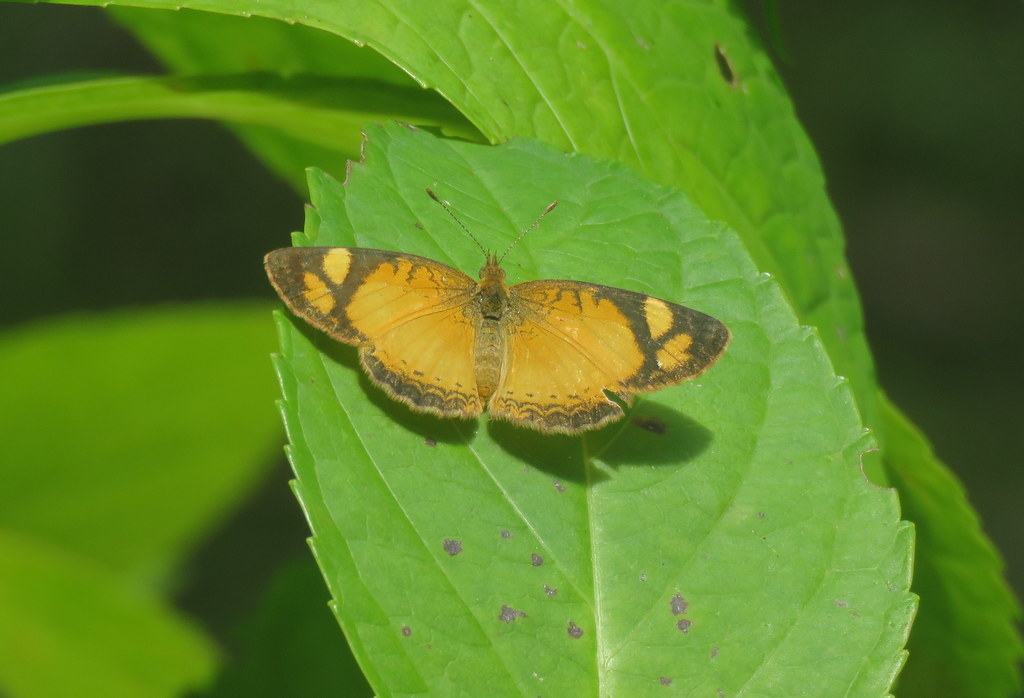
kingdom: Animalia
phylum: Arthropoda
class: Insecta
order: Lepidoptera
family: Nymphalidae
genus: Tegosa
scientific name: Tegosa claudina
